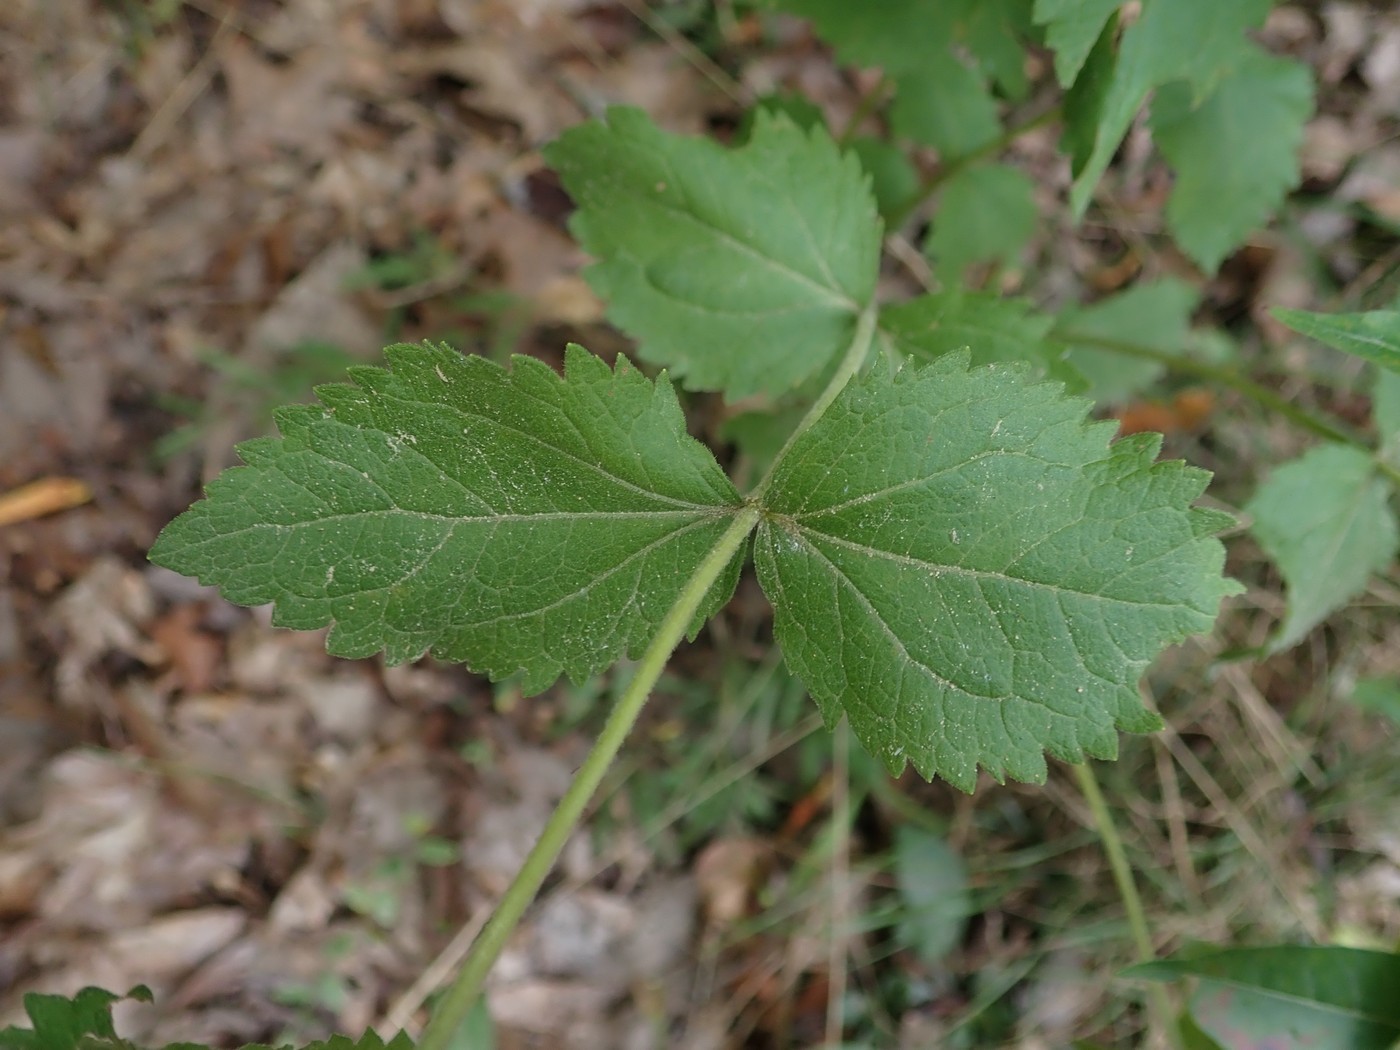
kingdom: Plantae
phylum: Tracheophyta
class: Magnoliopsida
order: Asterales
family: Asteraceae
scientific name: Asteraceae
